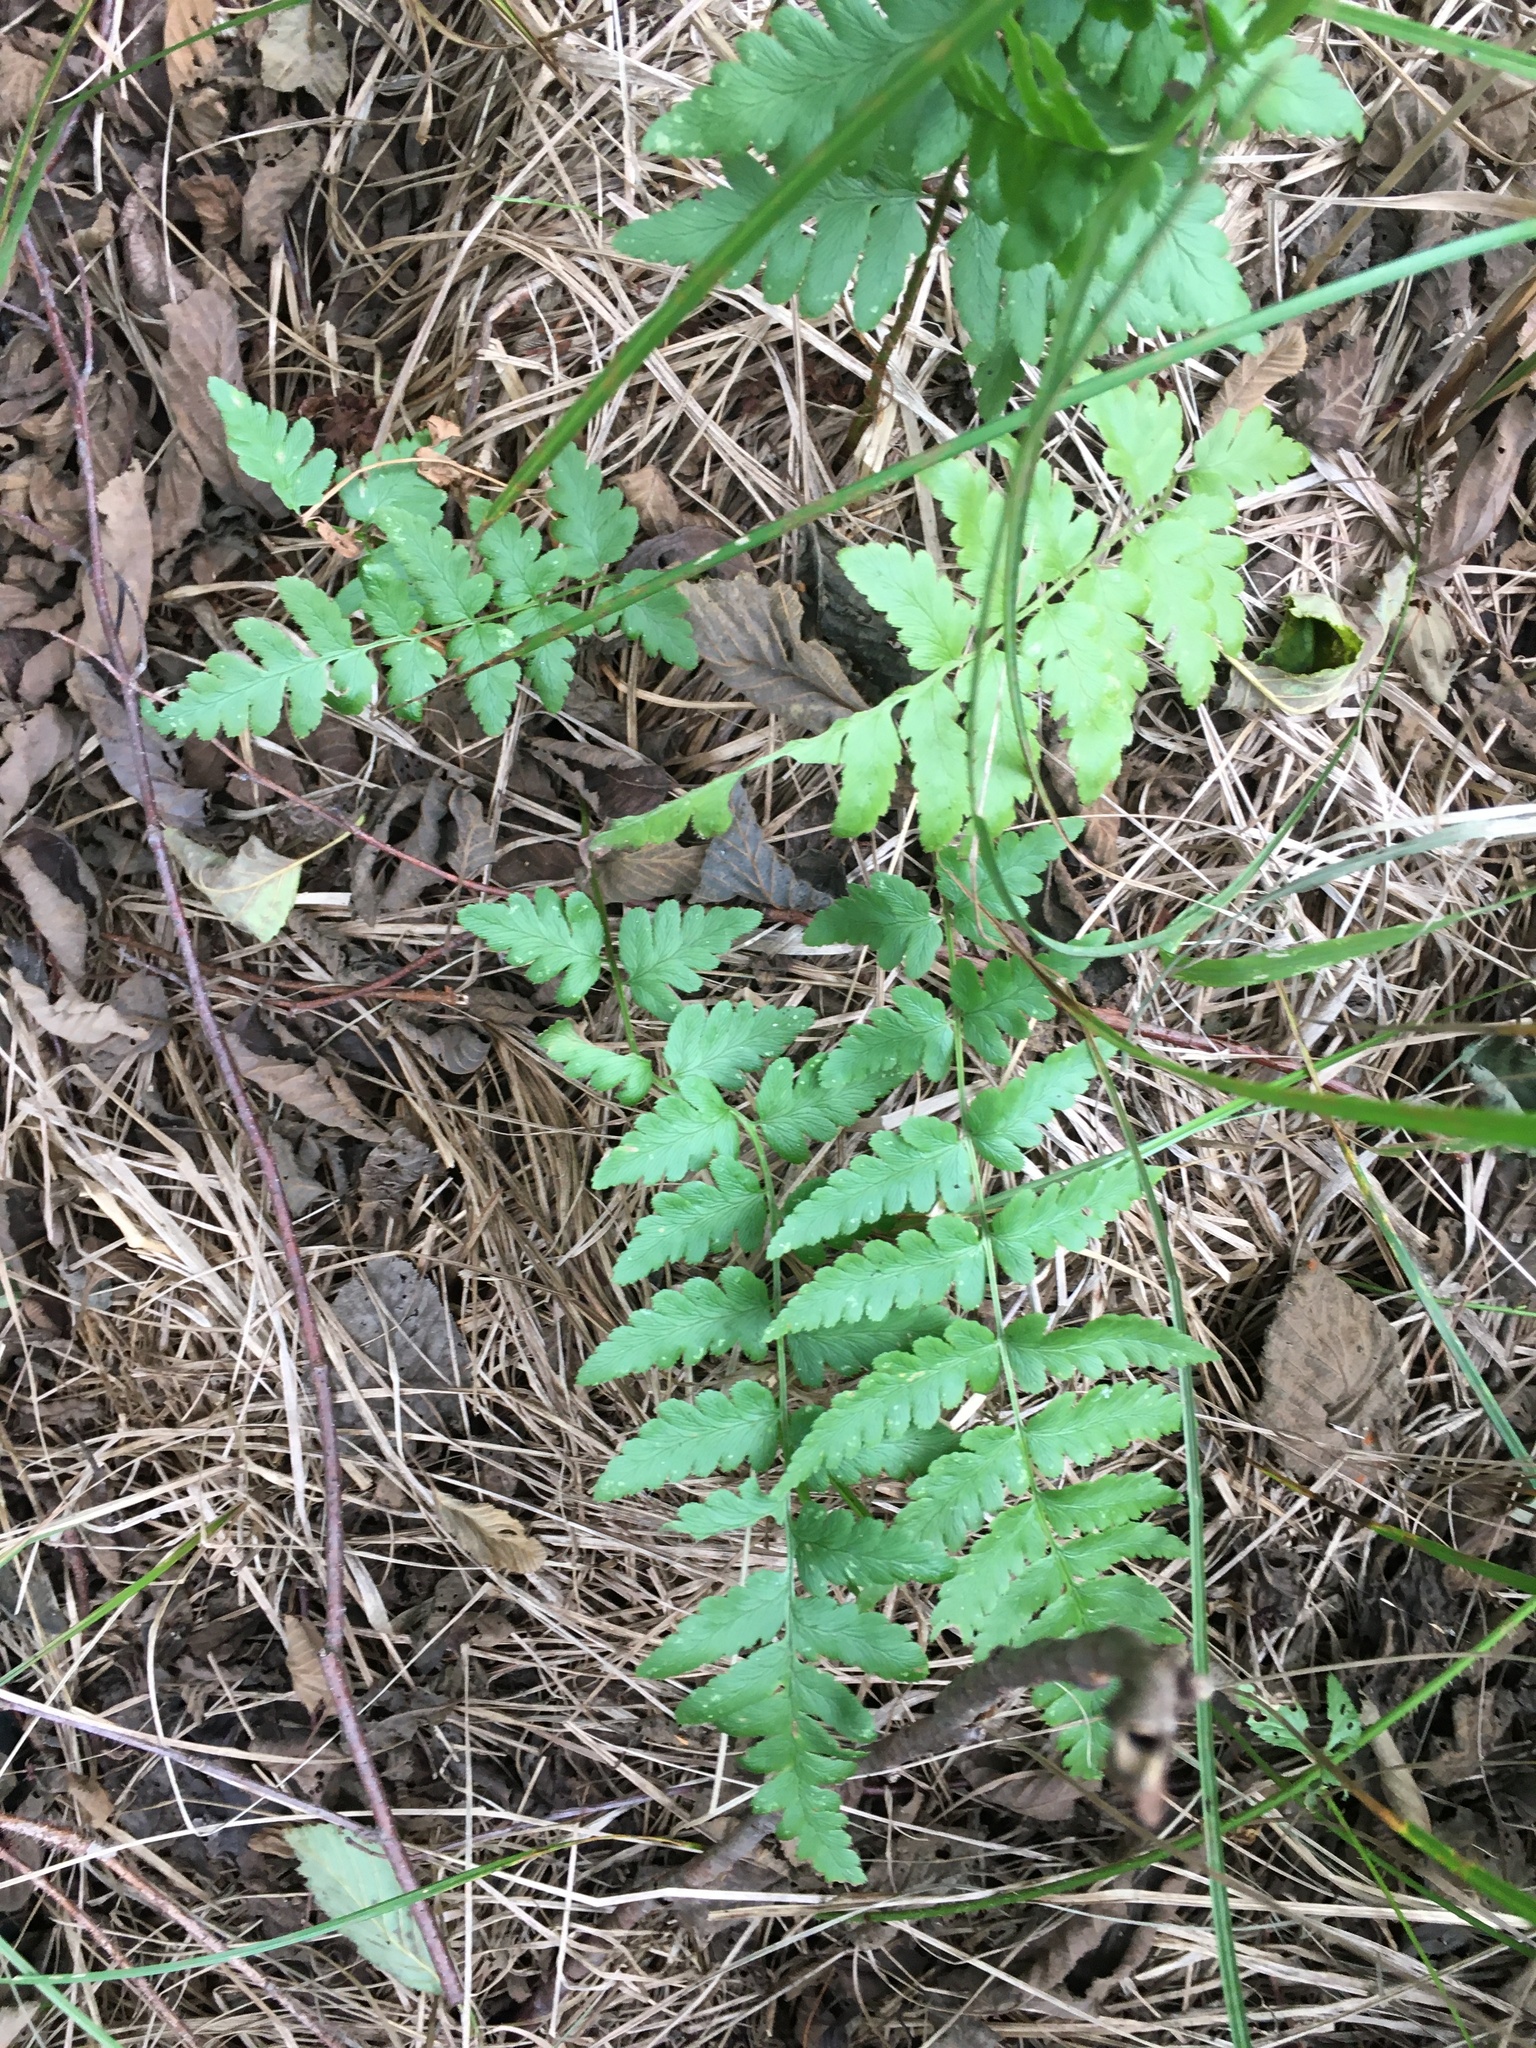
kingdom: Plantae
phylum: Tracheophyta
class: Polypodiopsida
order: Polypodiales
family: Dryopteridaceae
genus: Dryopteris
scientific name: Dryopteris cristata
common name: Crested wood fern
